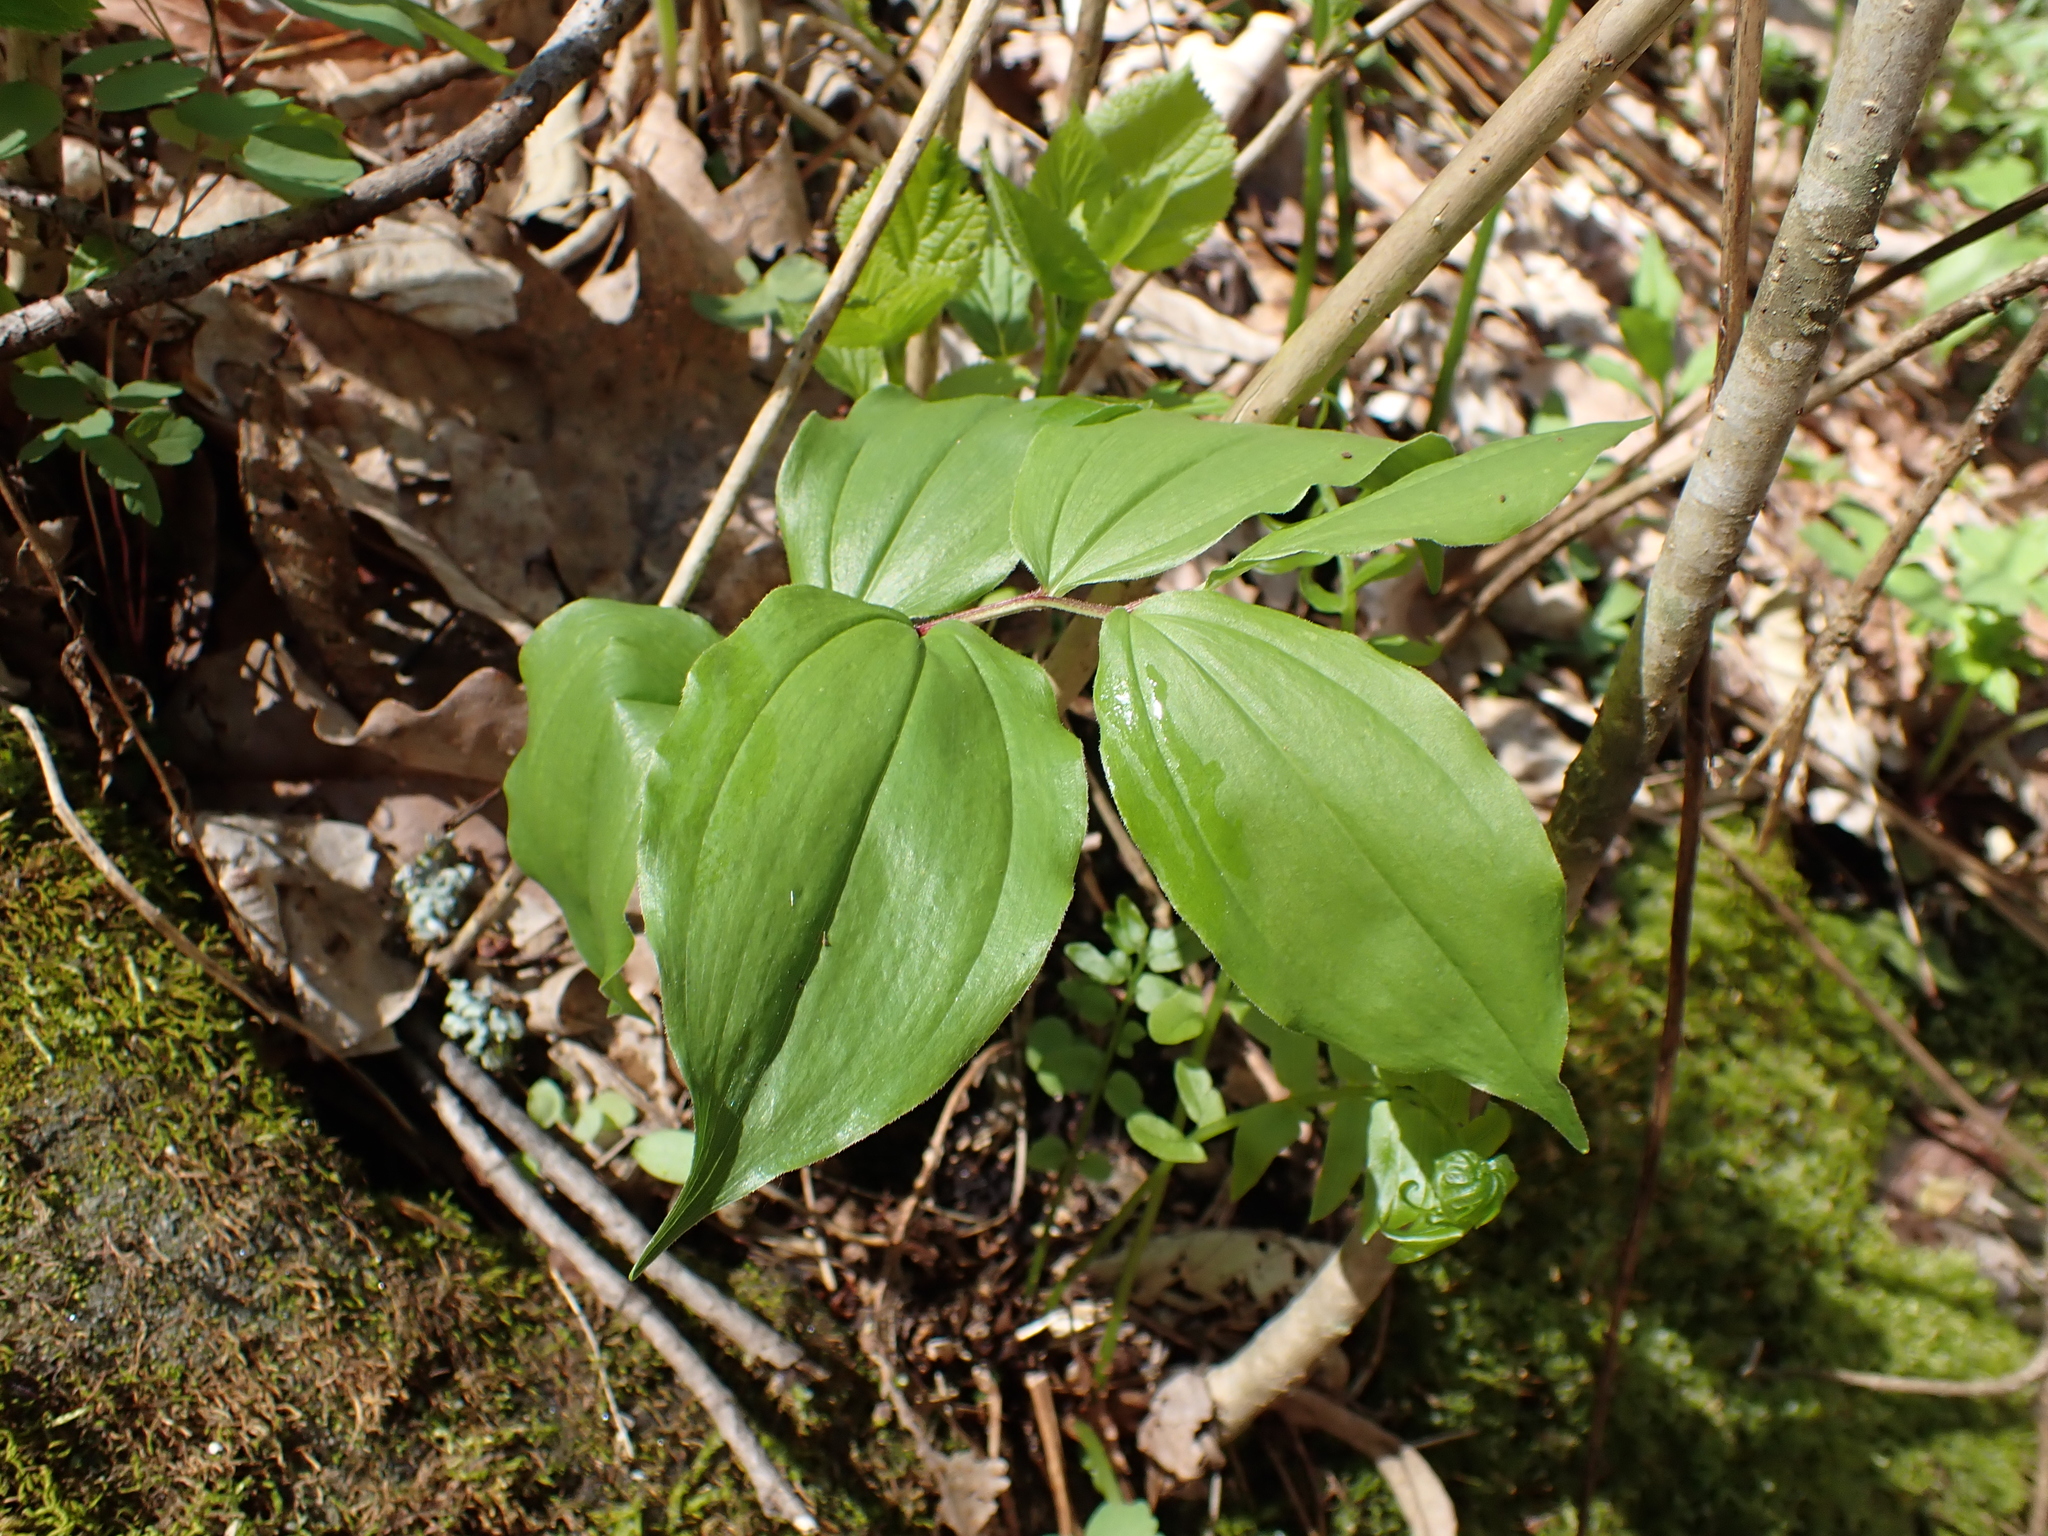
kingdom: Plantae
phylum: Tracheophyta
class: Liliopsida
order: Asparagales
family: Asparagaceae
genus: Maianthemum
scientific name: Maianthemum racemosum
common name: False spikenard
